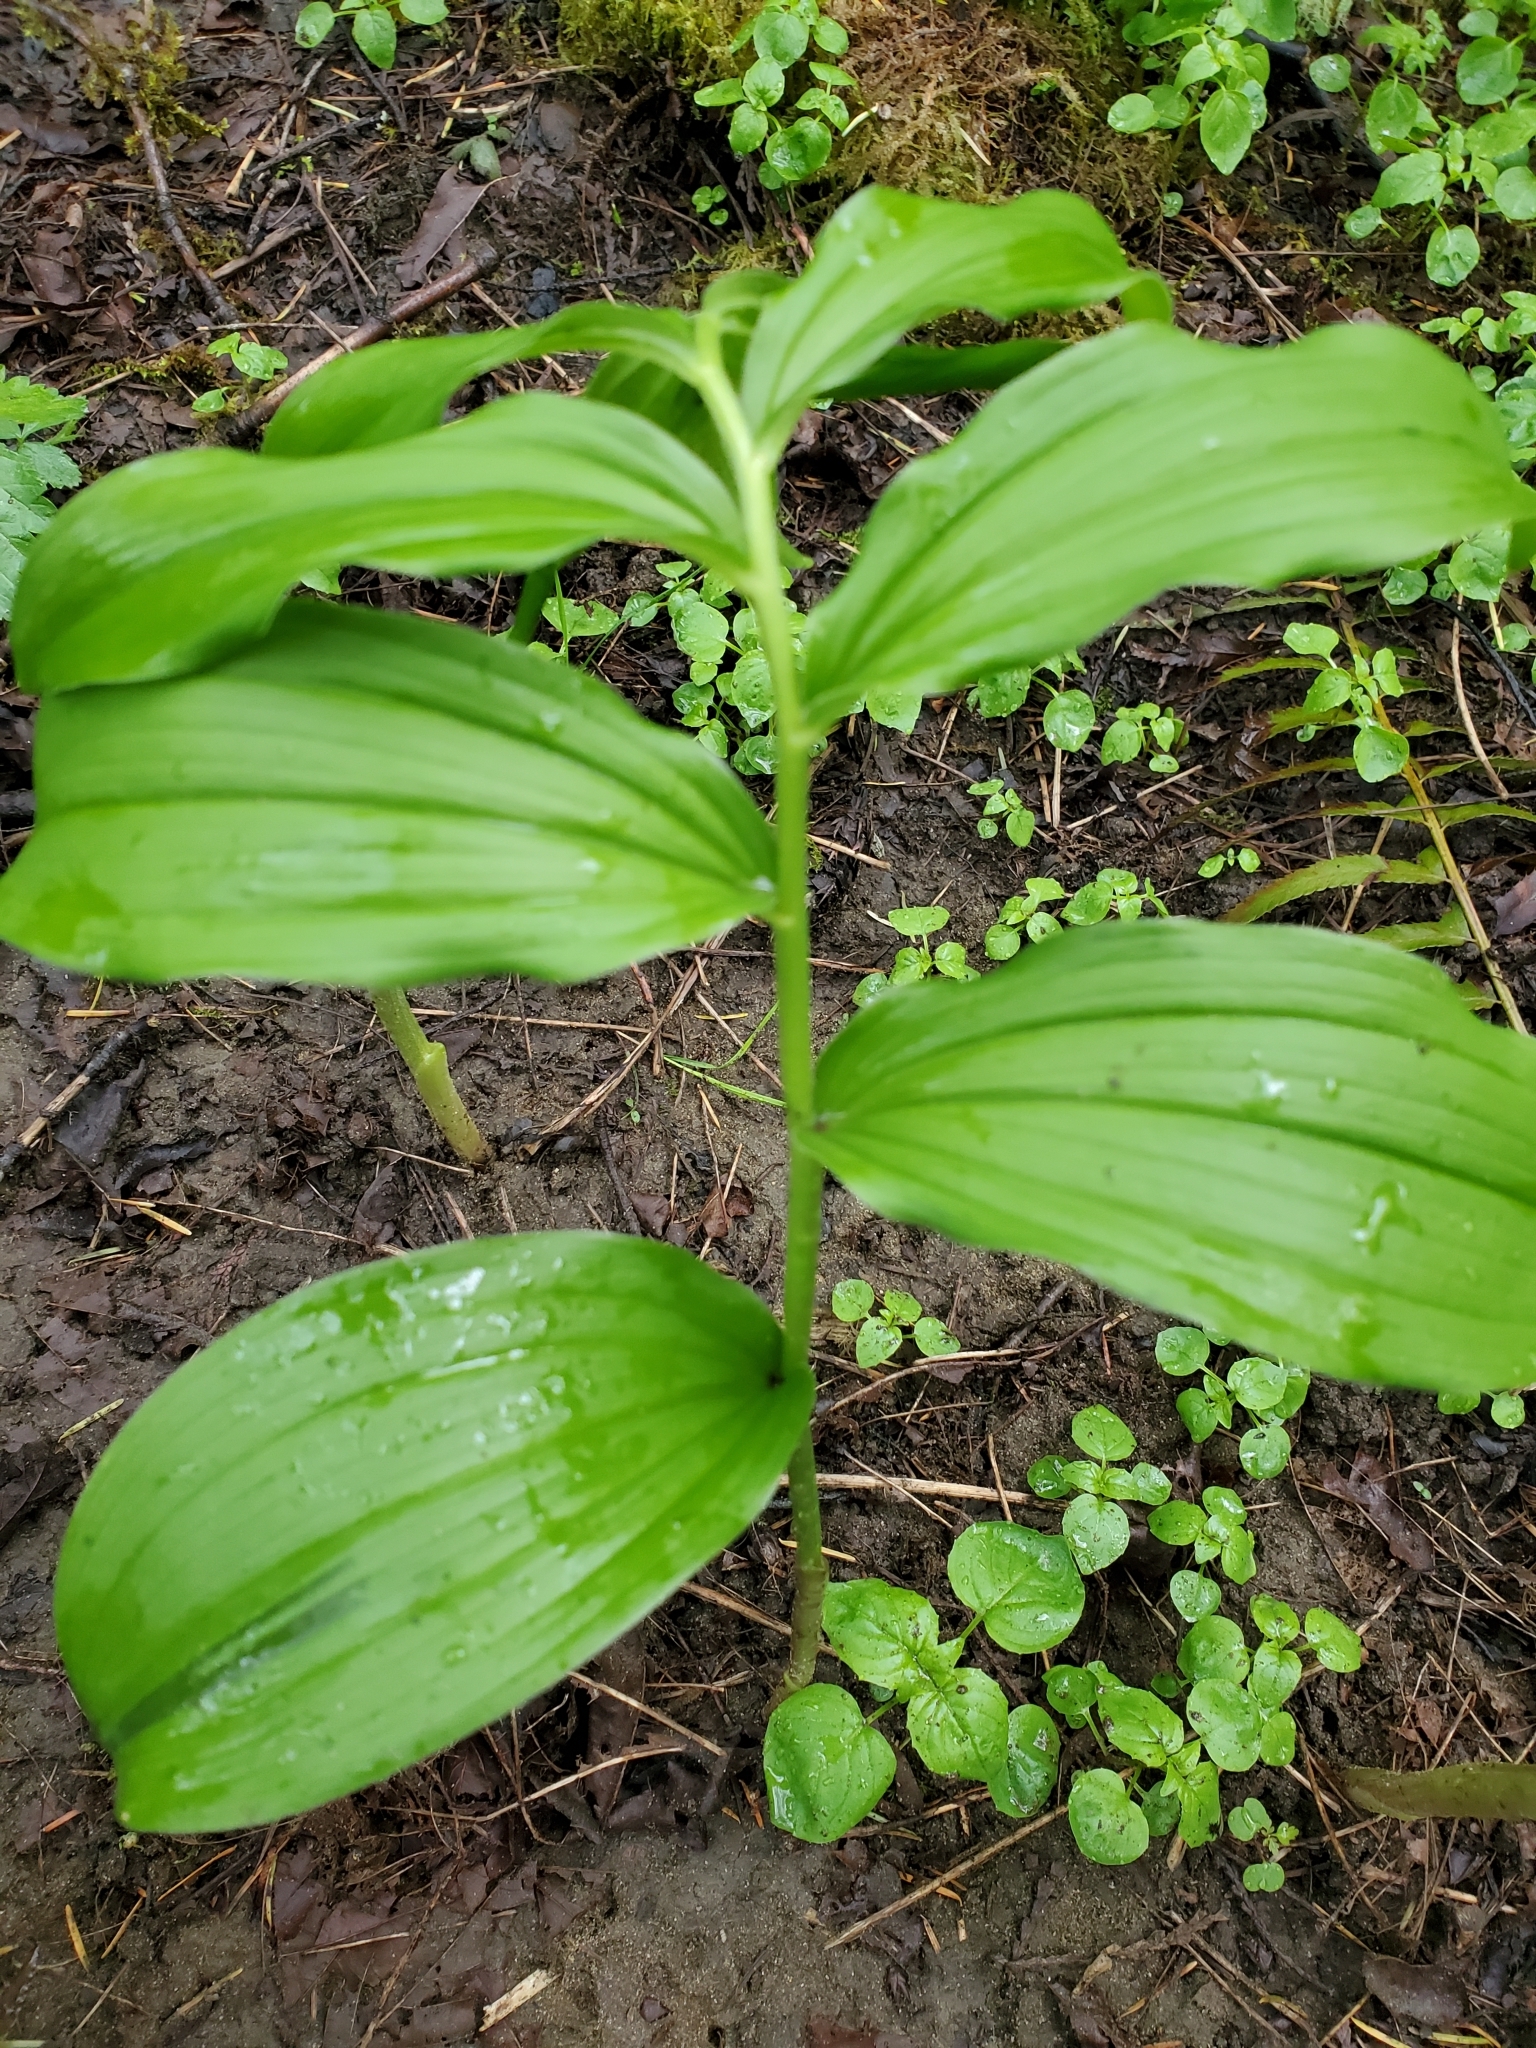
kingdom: Plantae
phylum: Tracheophyta
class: Liliopsida
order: Asparagales
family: Asparagaceae
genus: Maianthemum
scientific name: Maianthemum racemosum
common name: False spikenard
